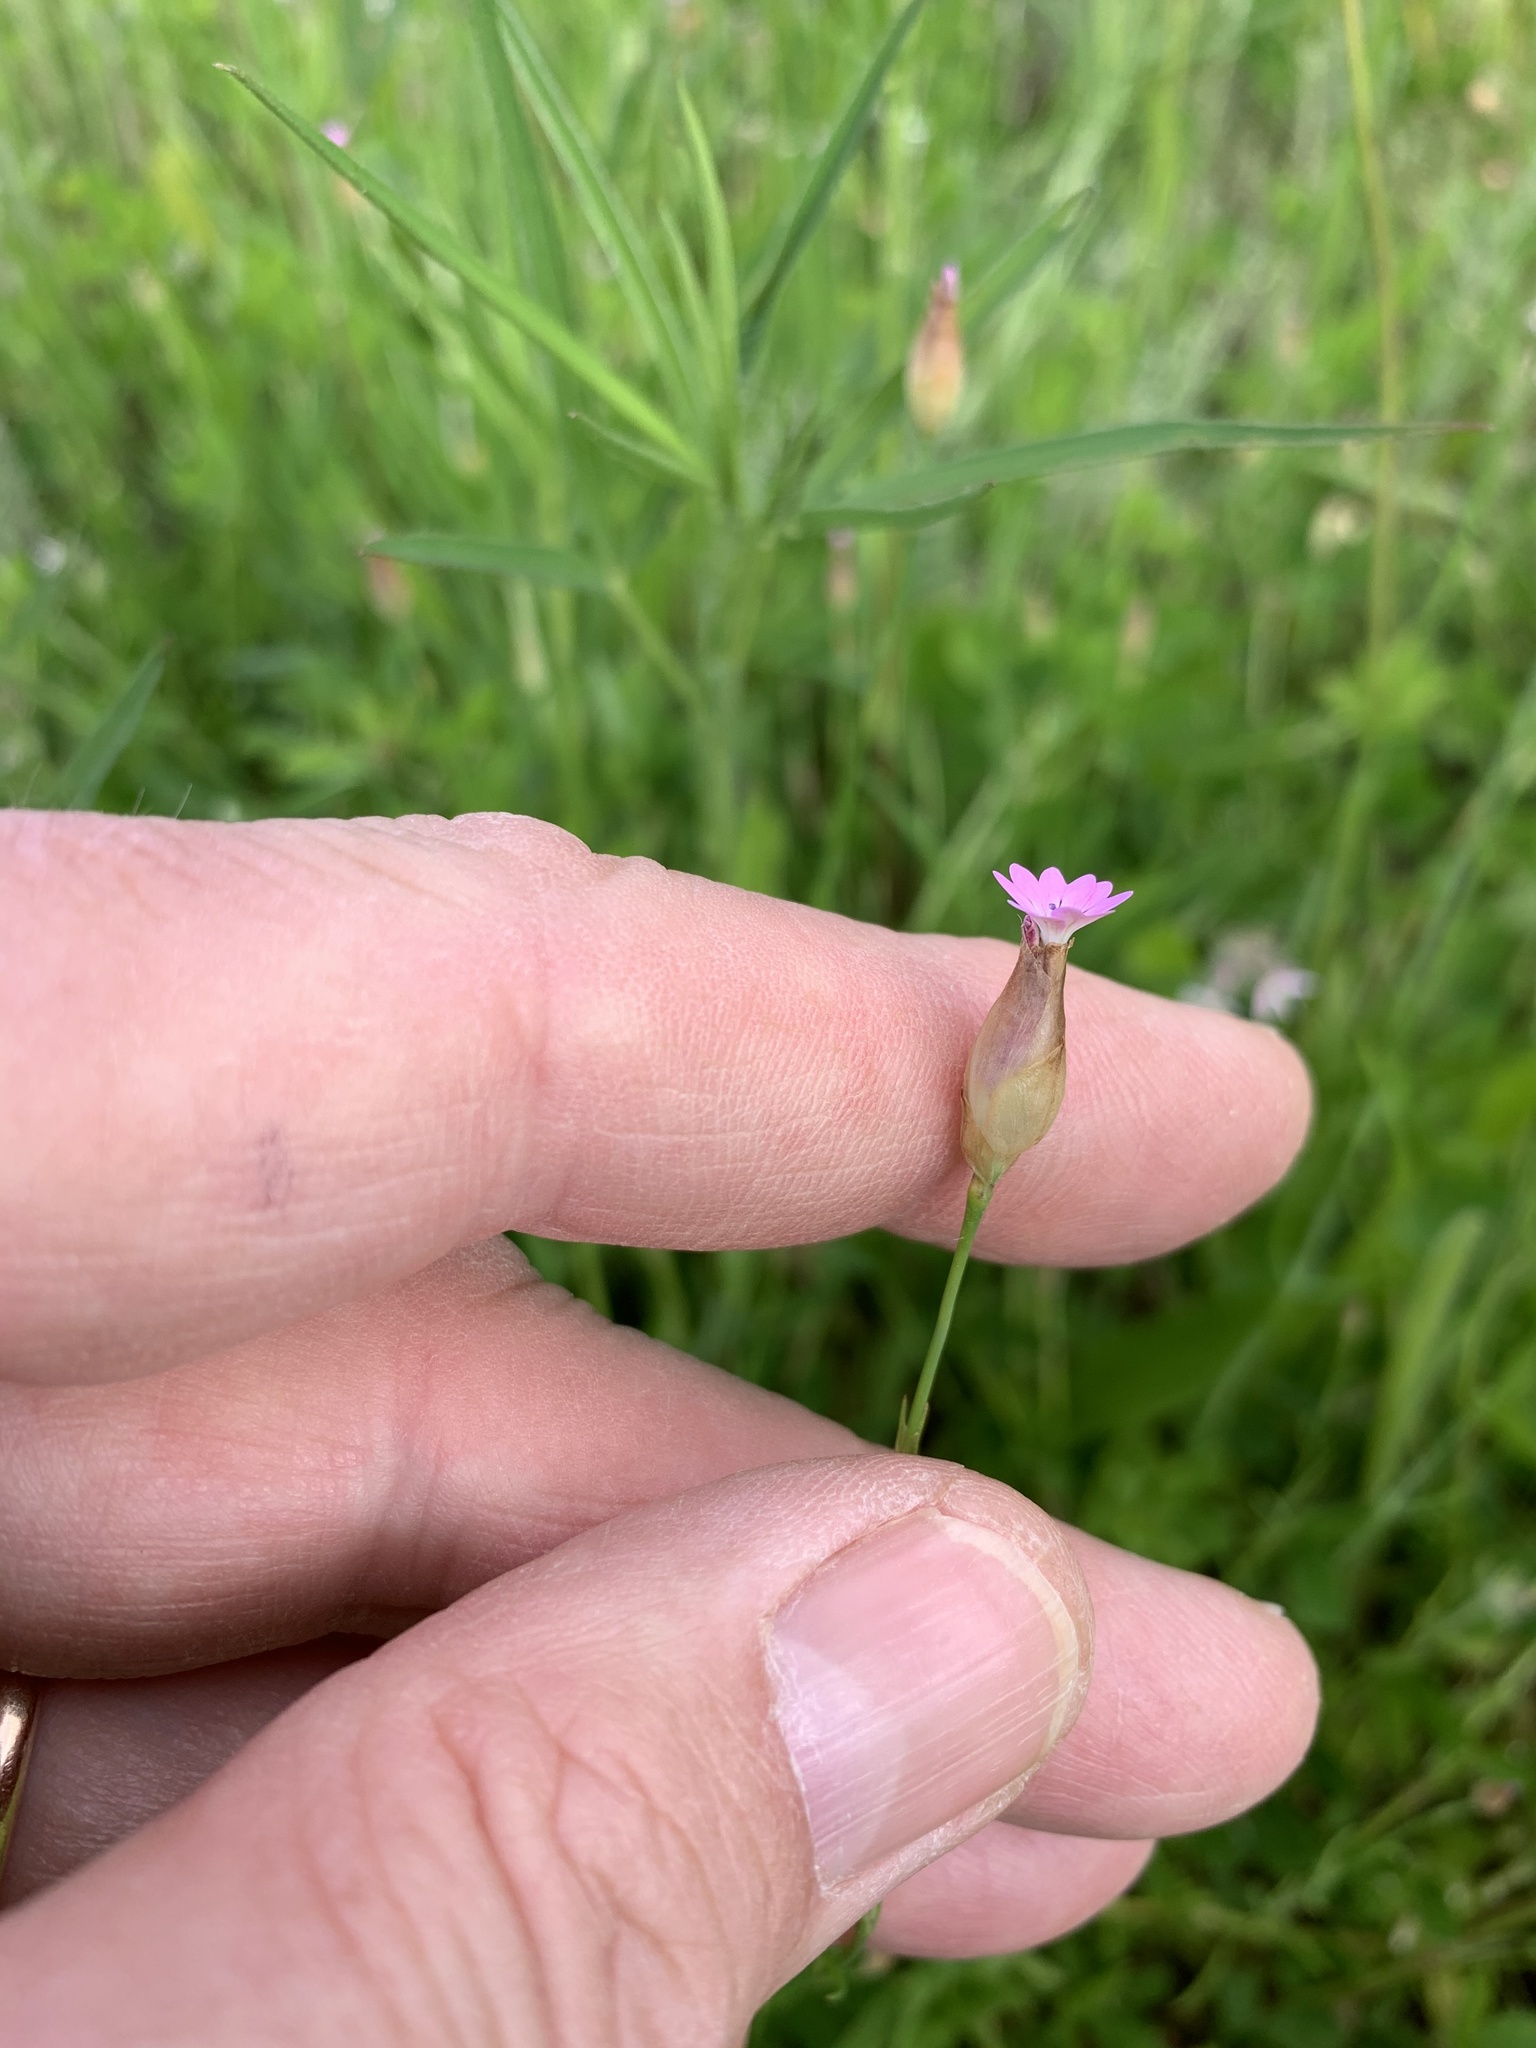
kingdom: Plantae
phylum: Tracheophyta
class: Magnoliopsida
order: Caryophyllales
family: Caryophyllaceae
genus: Petrorhagia
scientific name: Petrorhagia prolifera
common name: Proliferous pink
